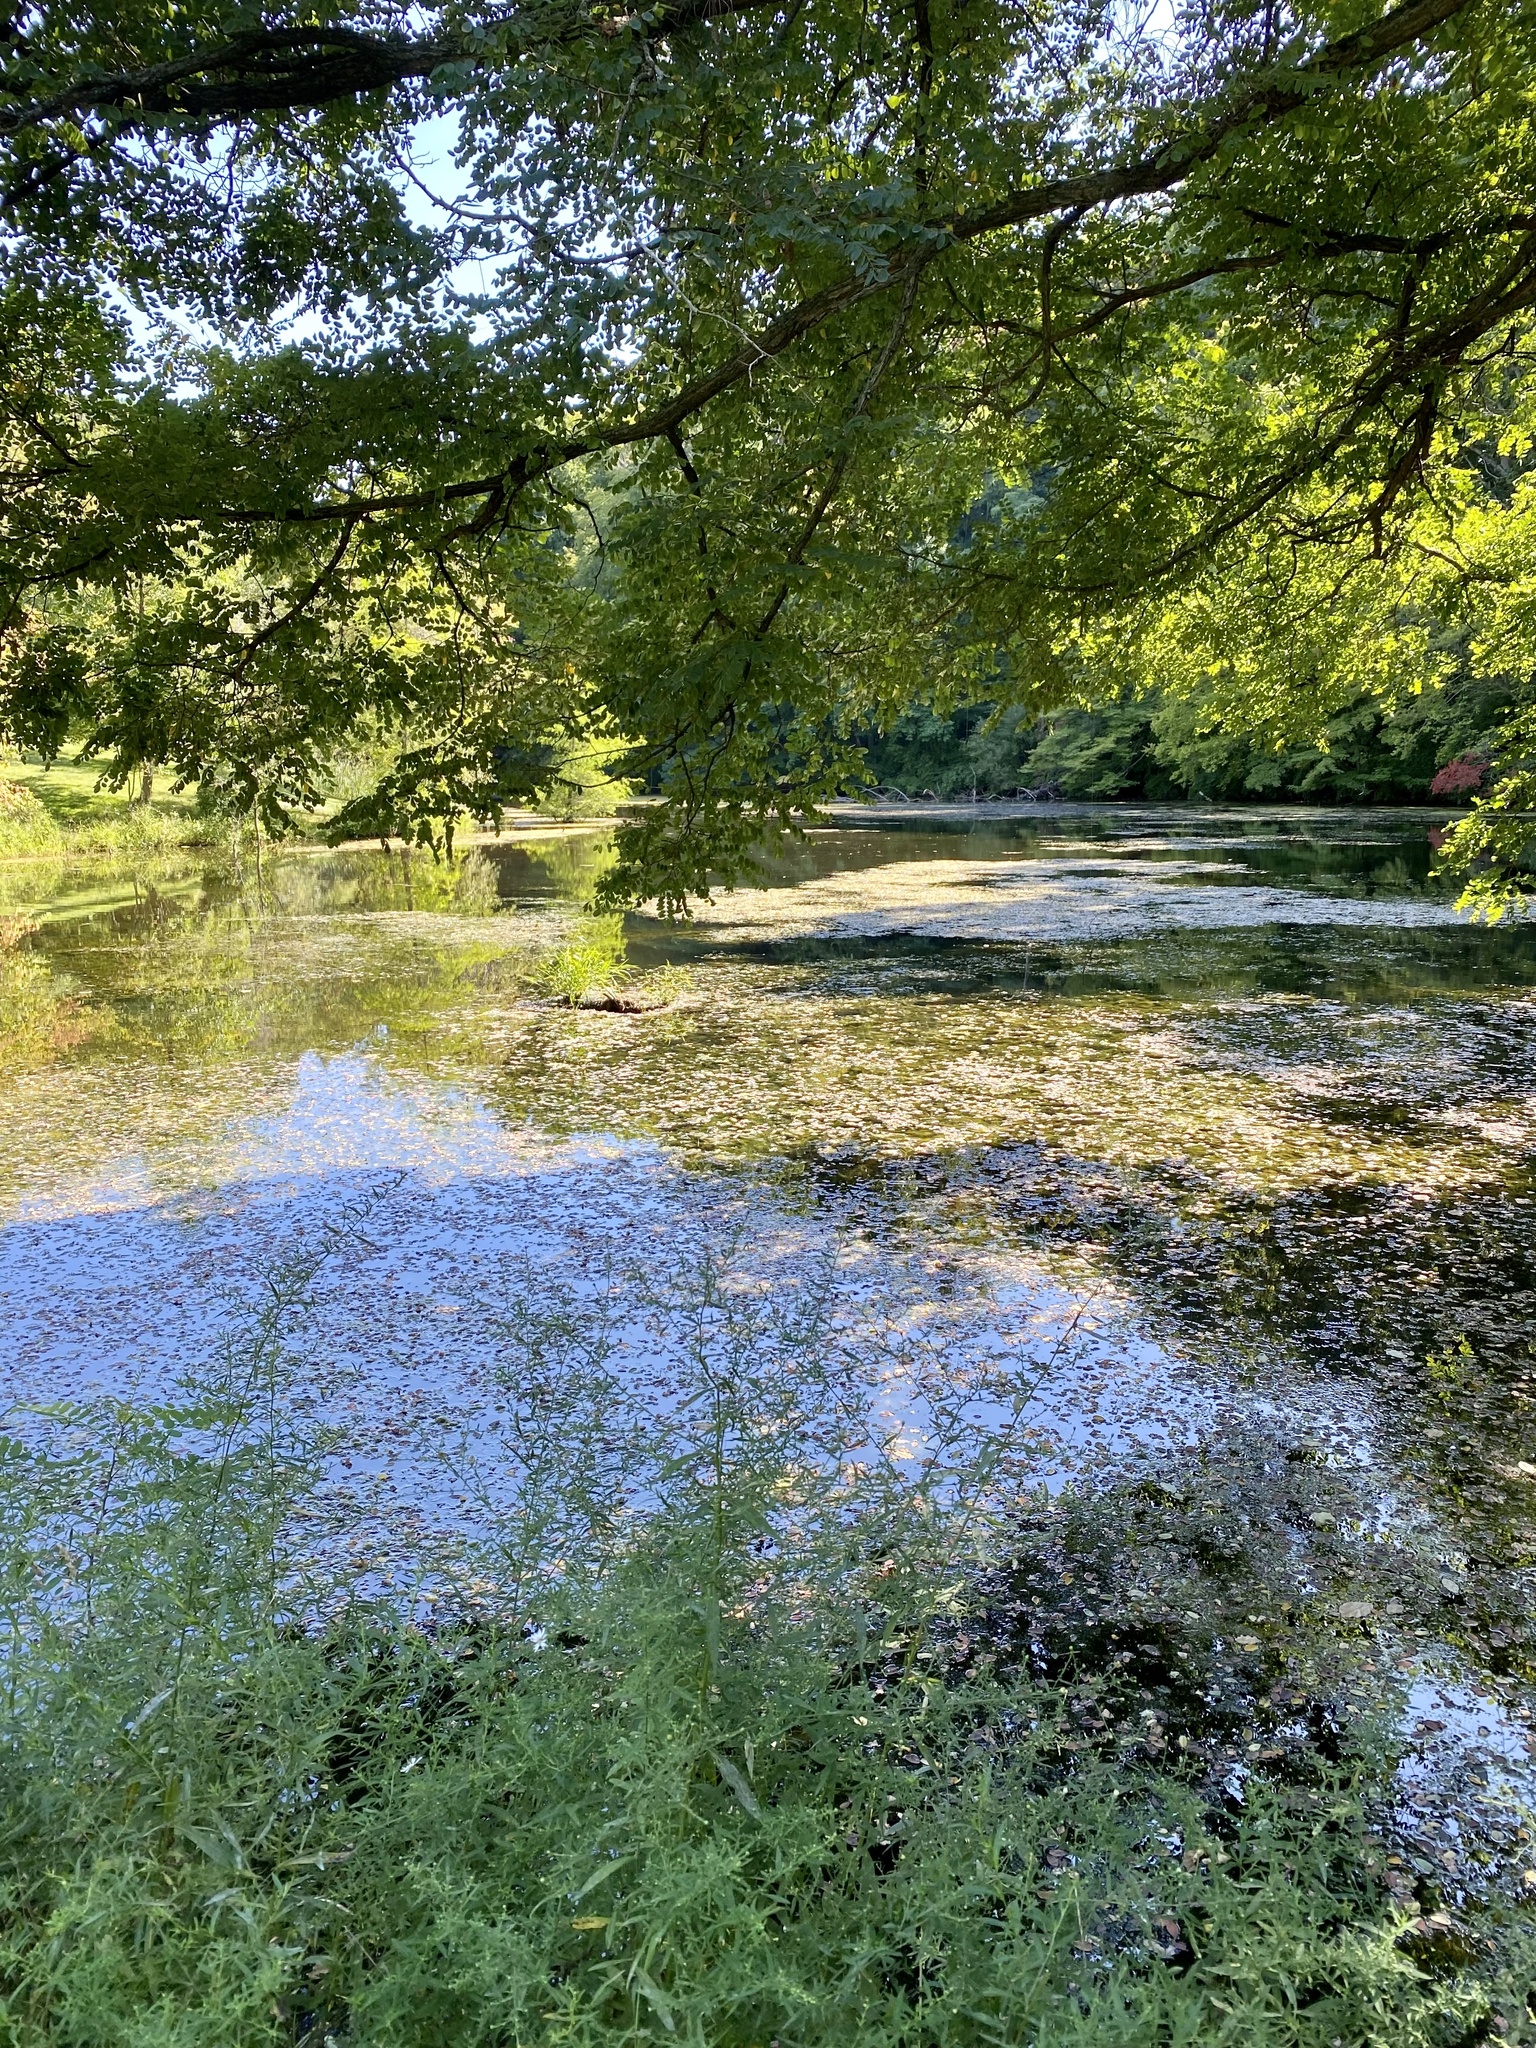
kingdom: Plantae
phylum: Tracheophyta
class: Magnoliopsida
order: Lamiales
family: Verbenaceae
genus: Verbena
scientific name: Verbena hastata
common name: American blue vervain
